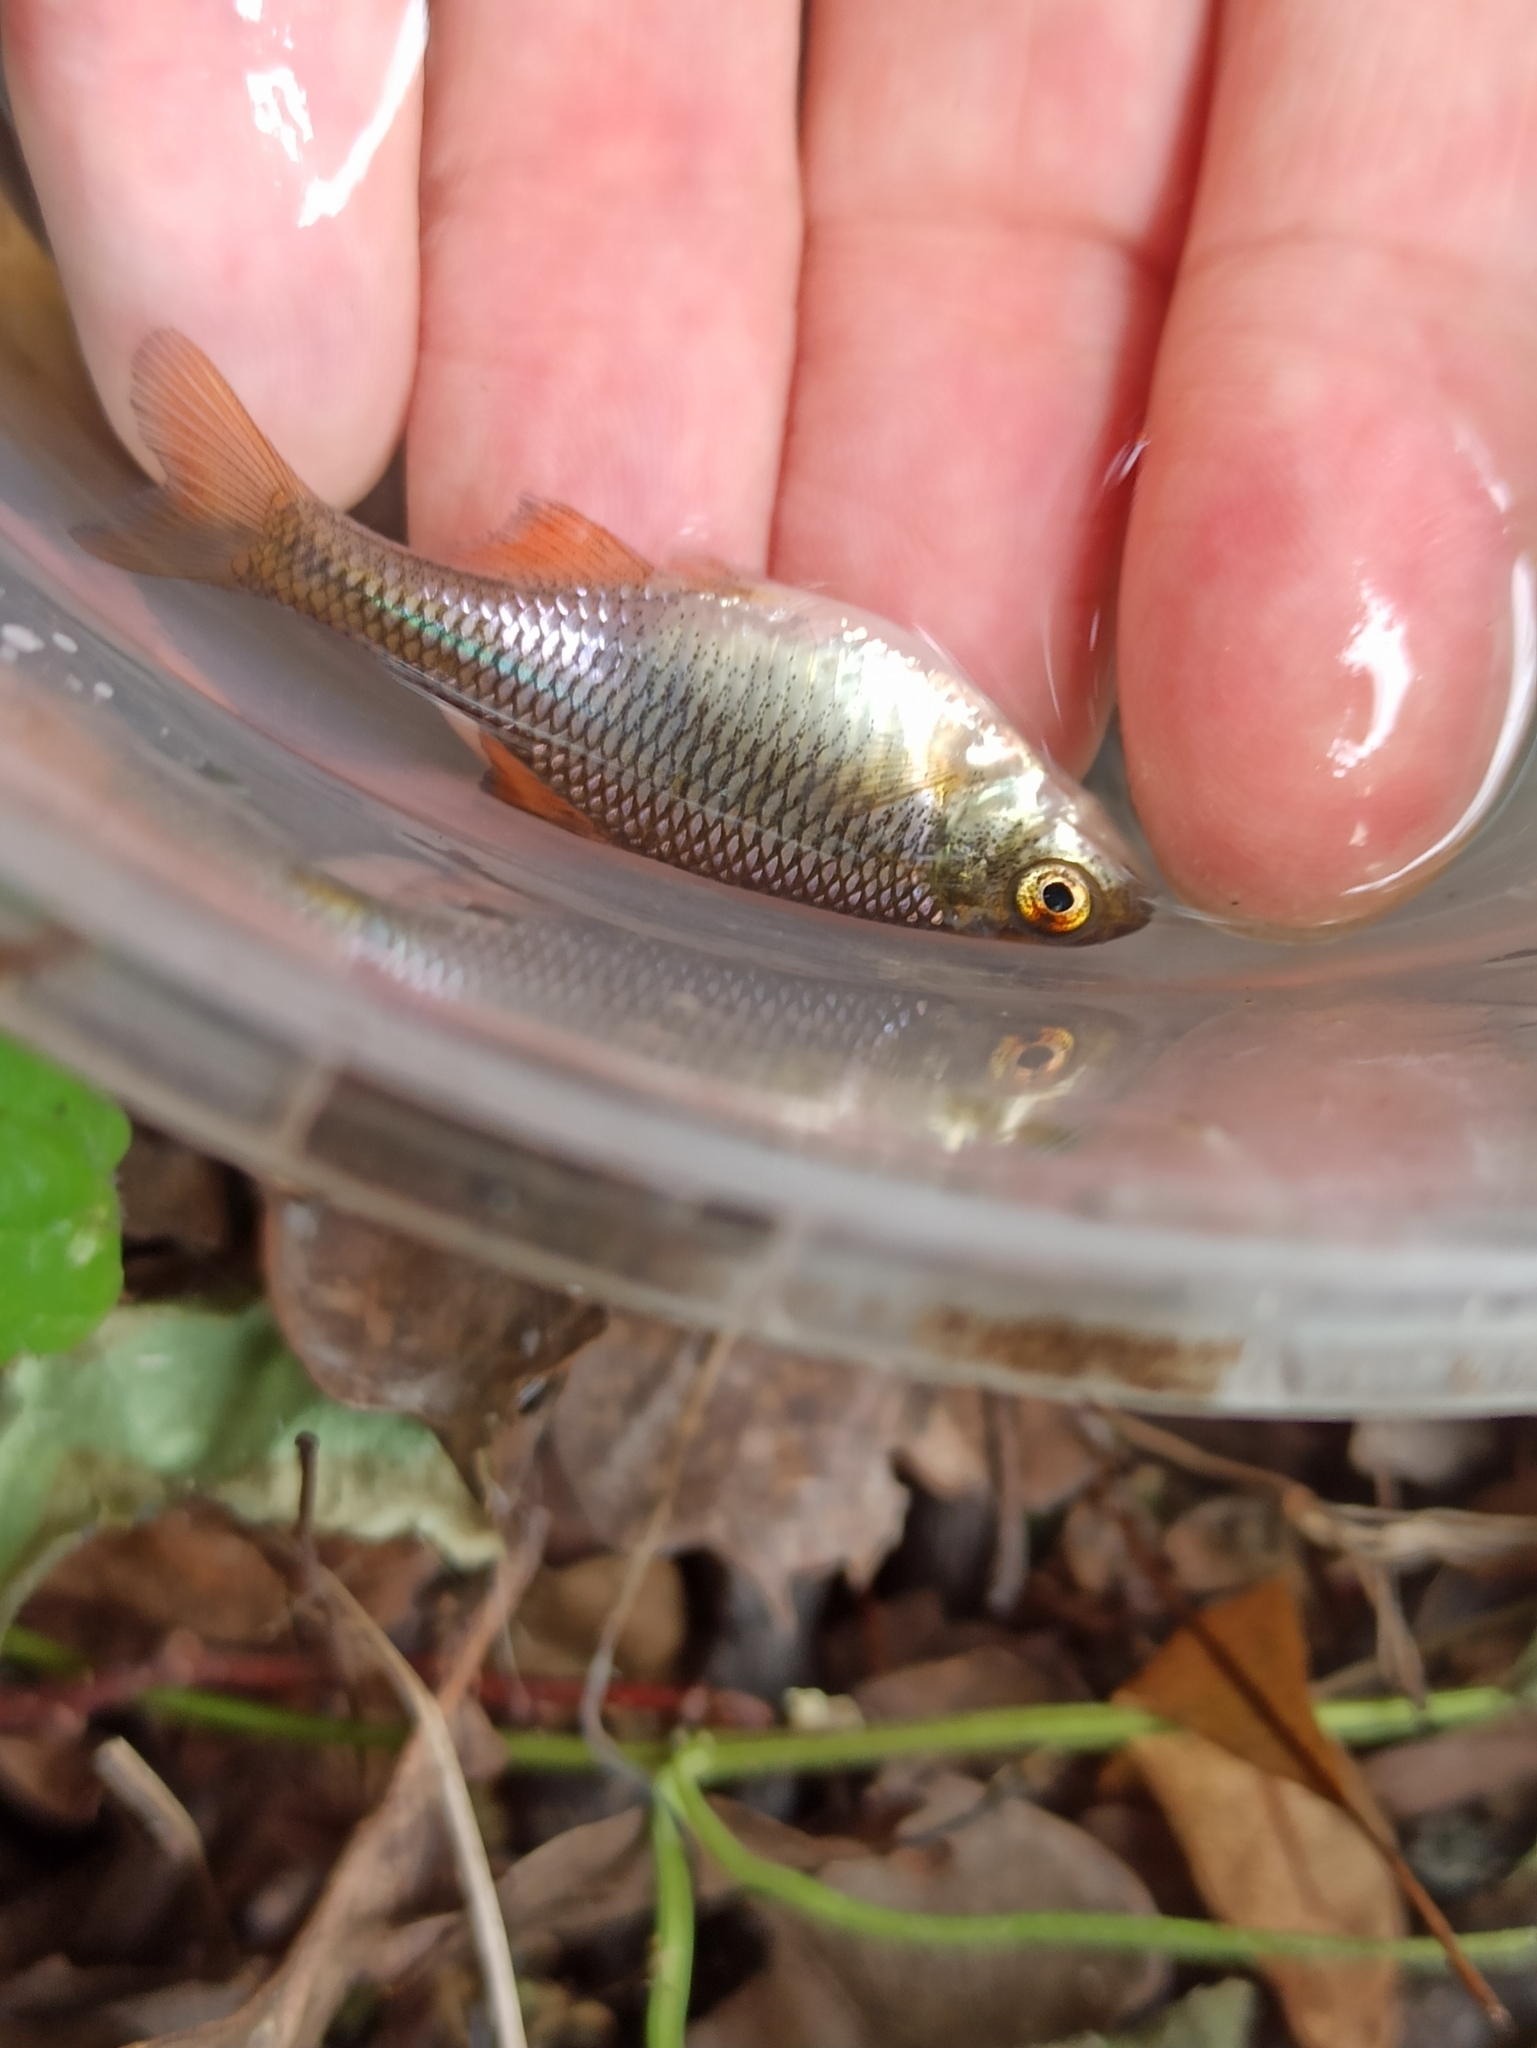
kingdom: Animalia
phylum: Chordata
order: Cypriniformes
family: Cyprinidae
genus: Rhodeus
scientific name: Rhodeus amarus
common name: Bitterling
